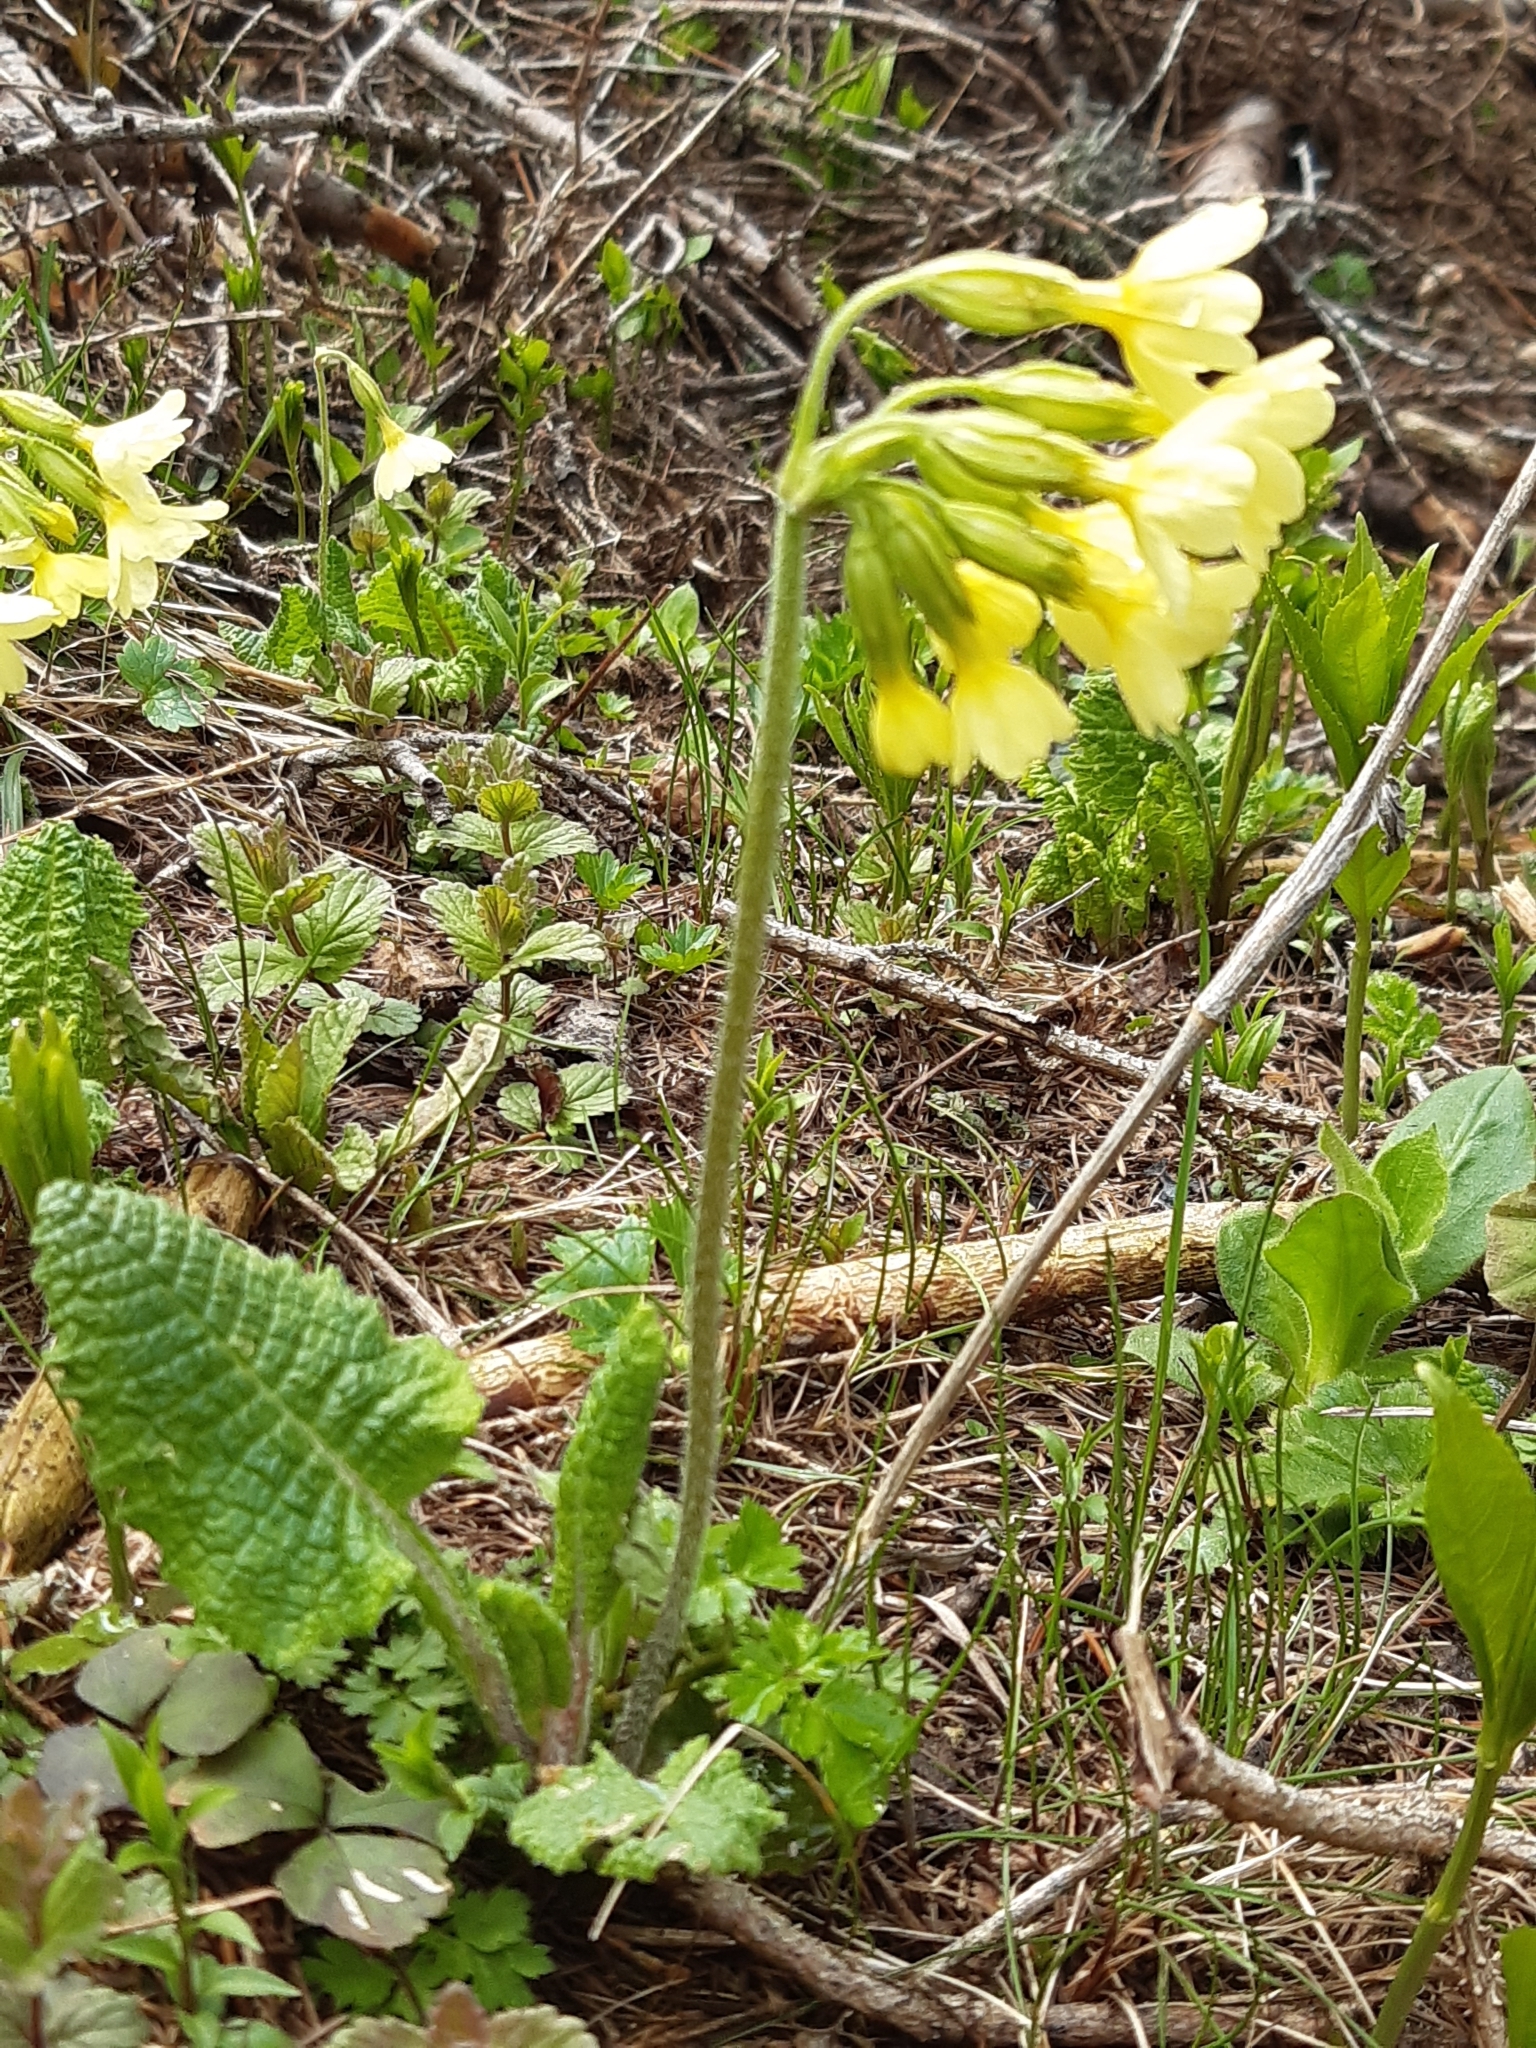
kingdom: Plantae
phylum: Tracheophyta
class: Magnoliopsida
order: Ericales
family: Primulaceae
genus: Primula
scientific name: Primula elatior
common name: Oxlip
